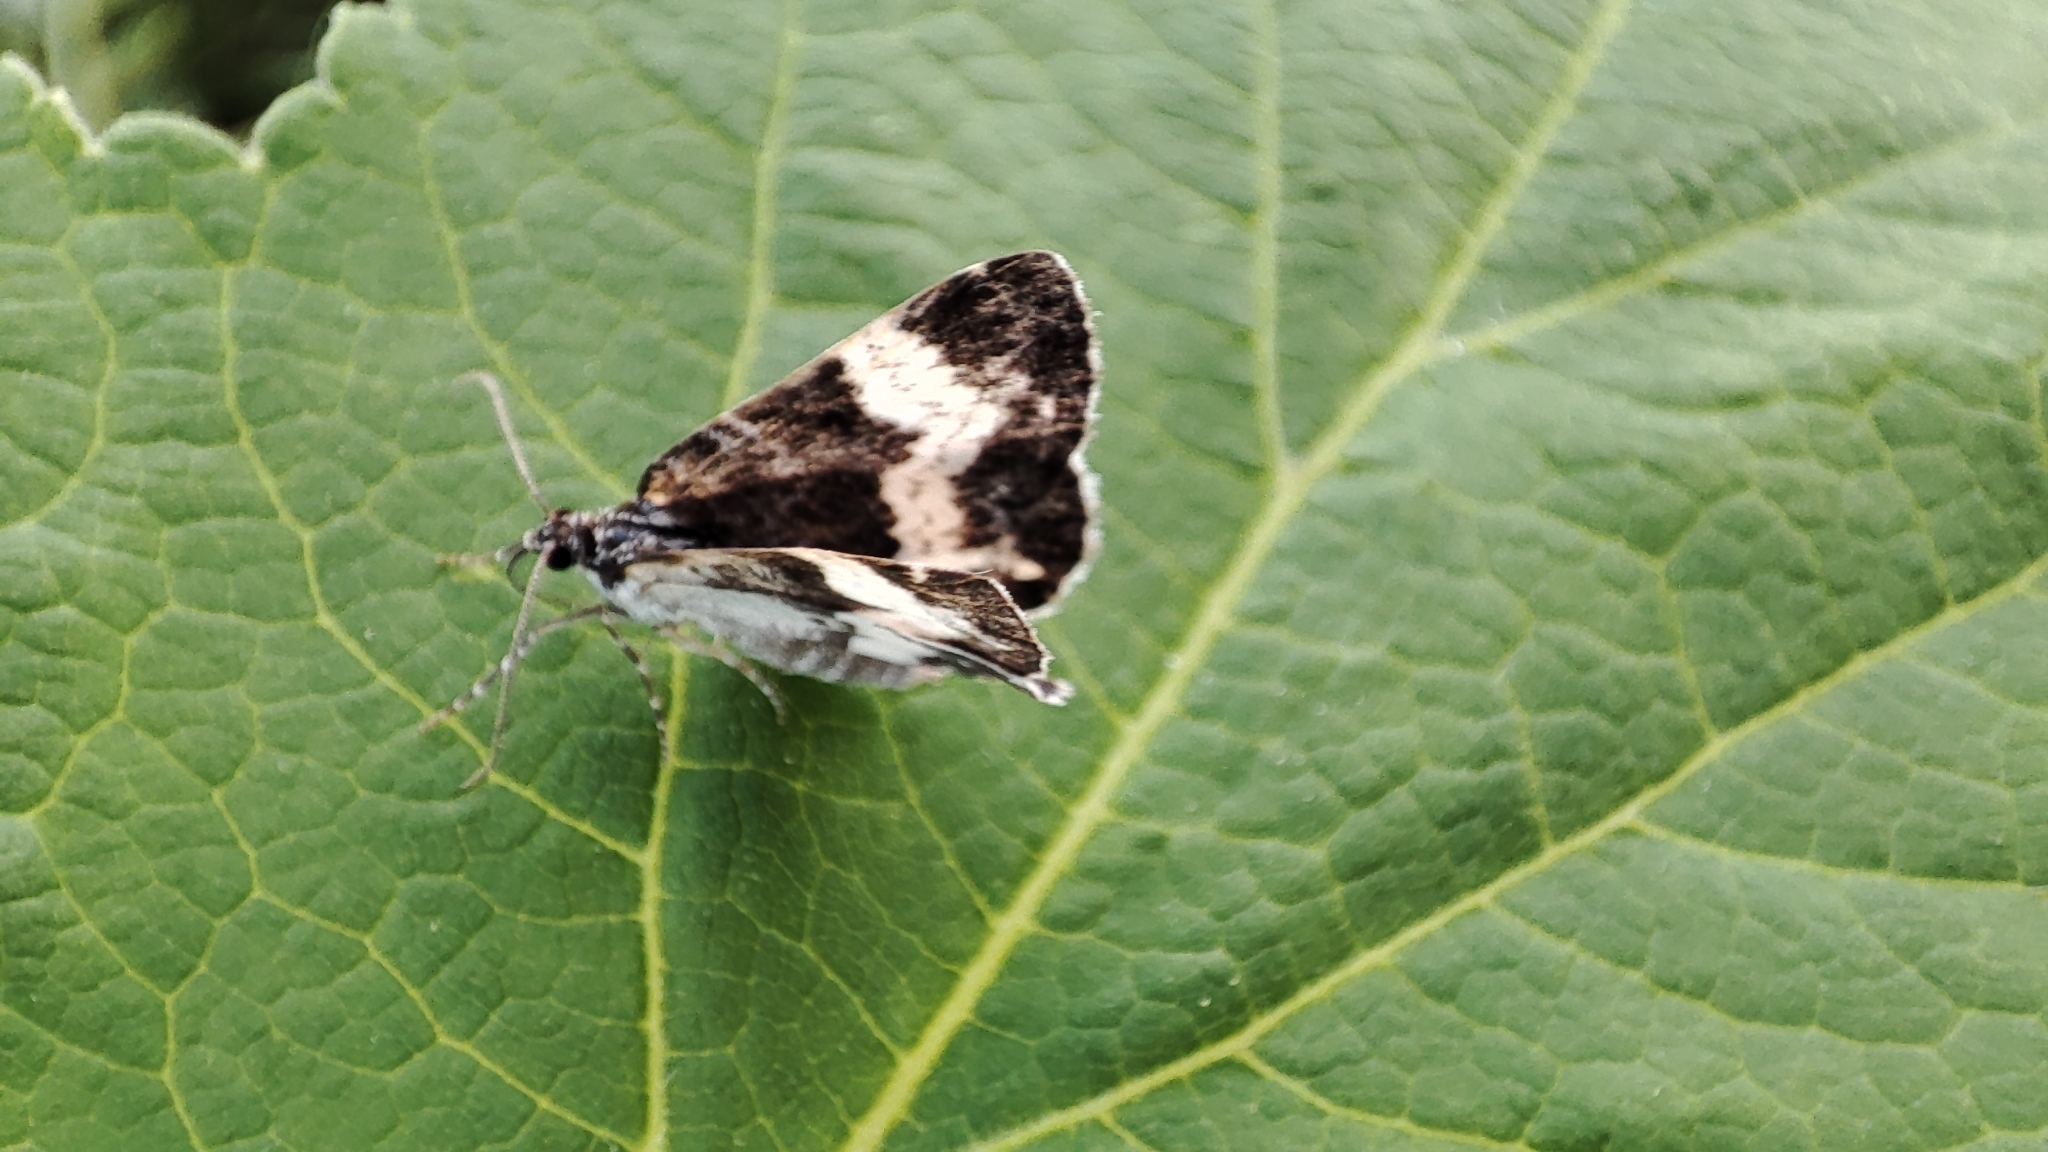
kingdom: Animalia
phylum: Arthropoda
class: Insecta
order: Lepidoptera
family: Geometridae
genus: Spargania
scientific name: Spargania luctuata
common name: White-banded carpet
